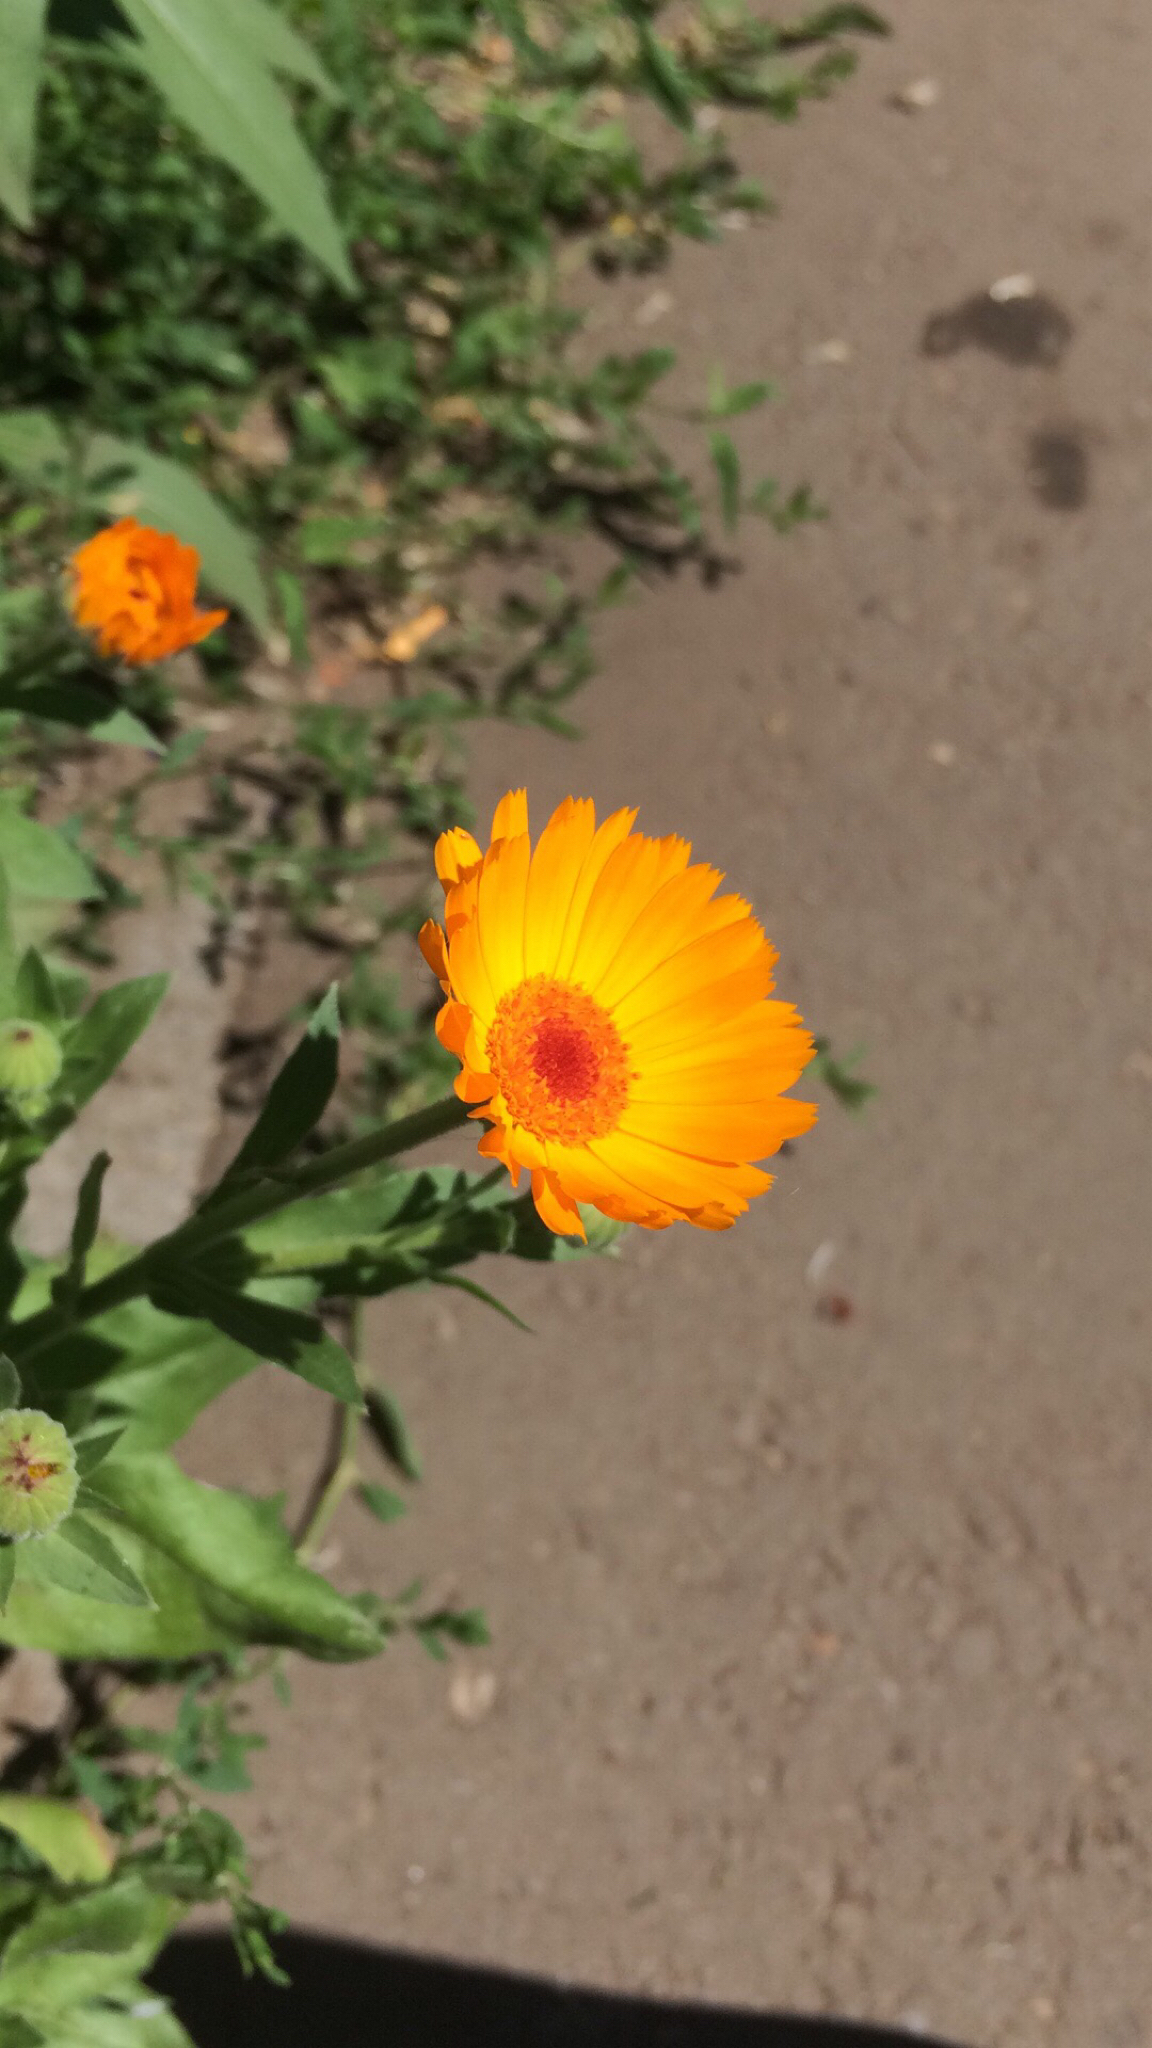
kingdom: Plantae
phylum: Tracheophyta
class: Magnoliopsida
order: Asterales
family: Asteraceae
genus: Calendula
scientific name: Calendula officinalis
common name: Pot marigold
